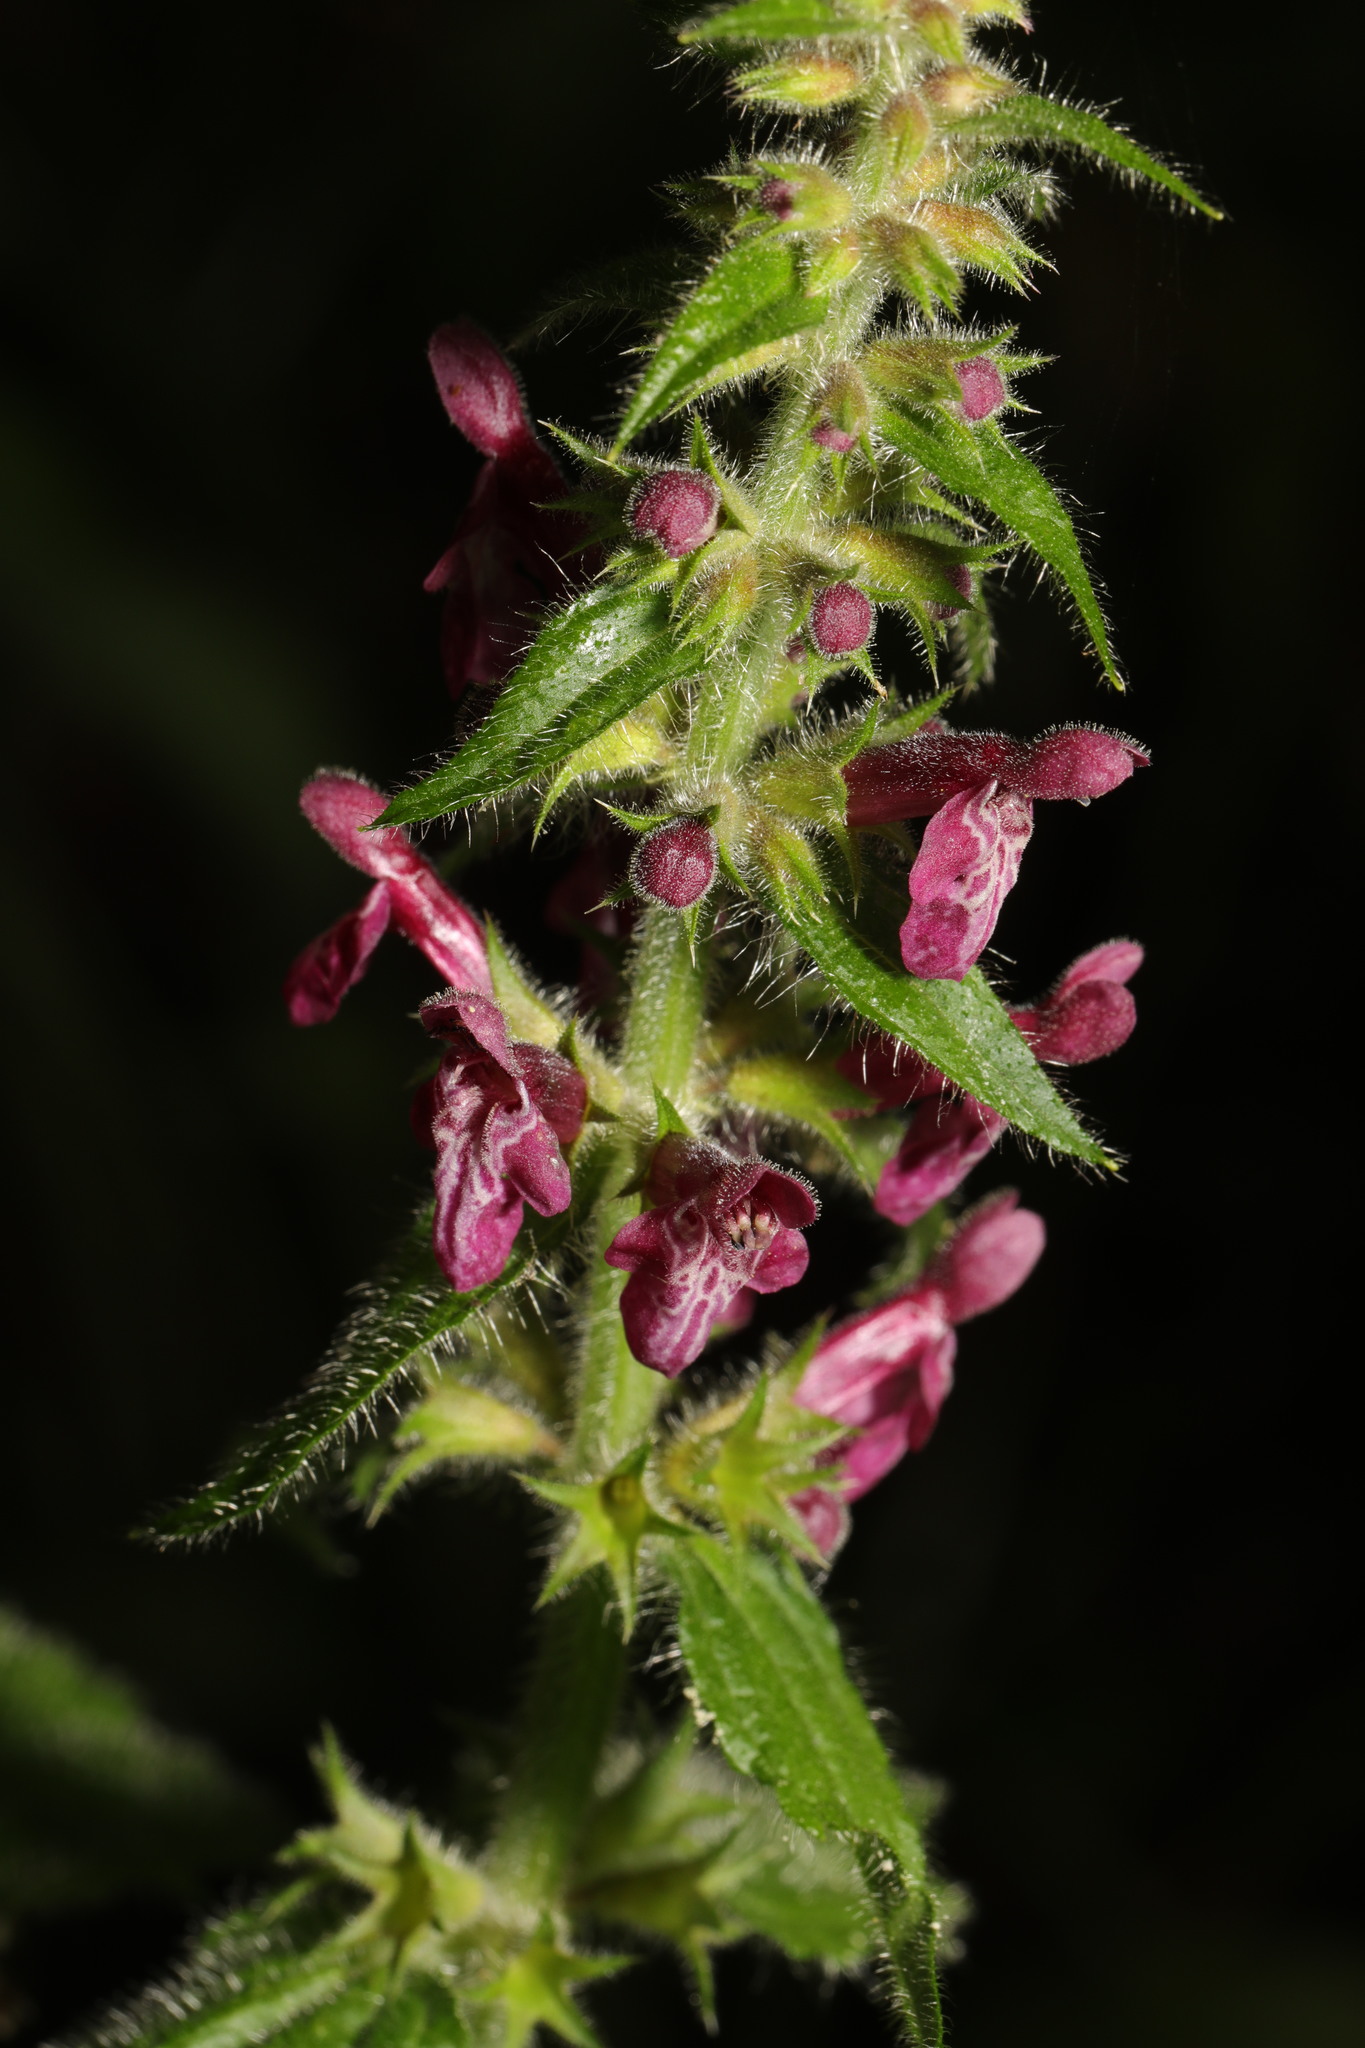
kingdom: Plantae
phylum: Tracheophyta
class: Magnoliopsida
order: Lamiales
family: Lamiaceae
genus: Stachys
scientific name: Stachys sylvatica
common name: Hedge woundwort
